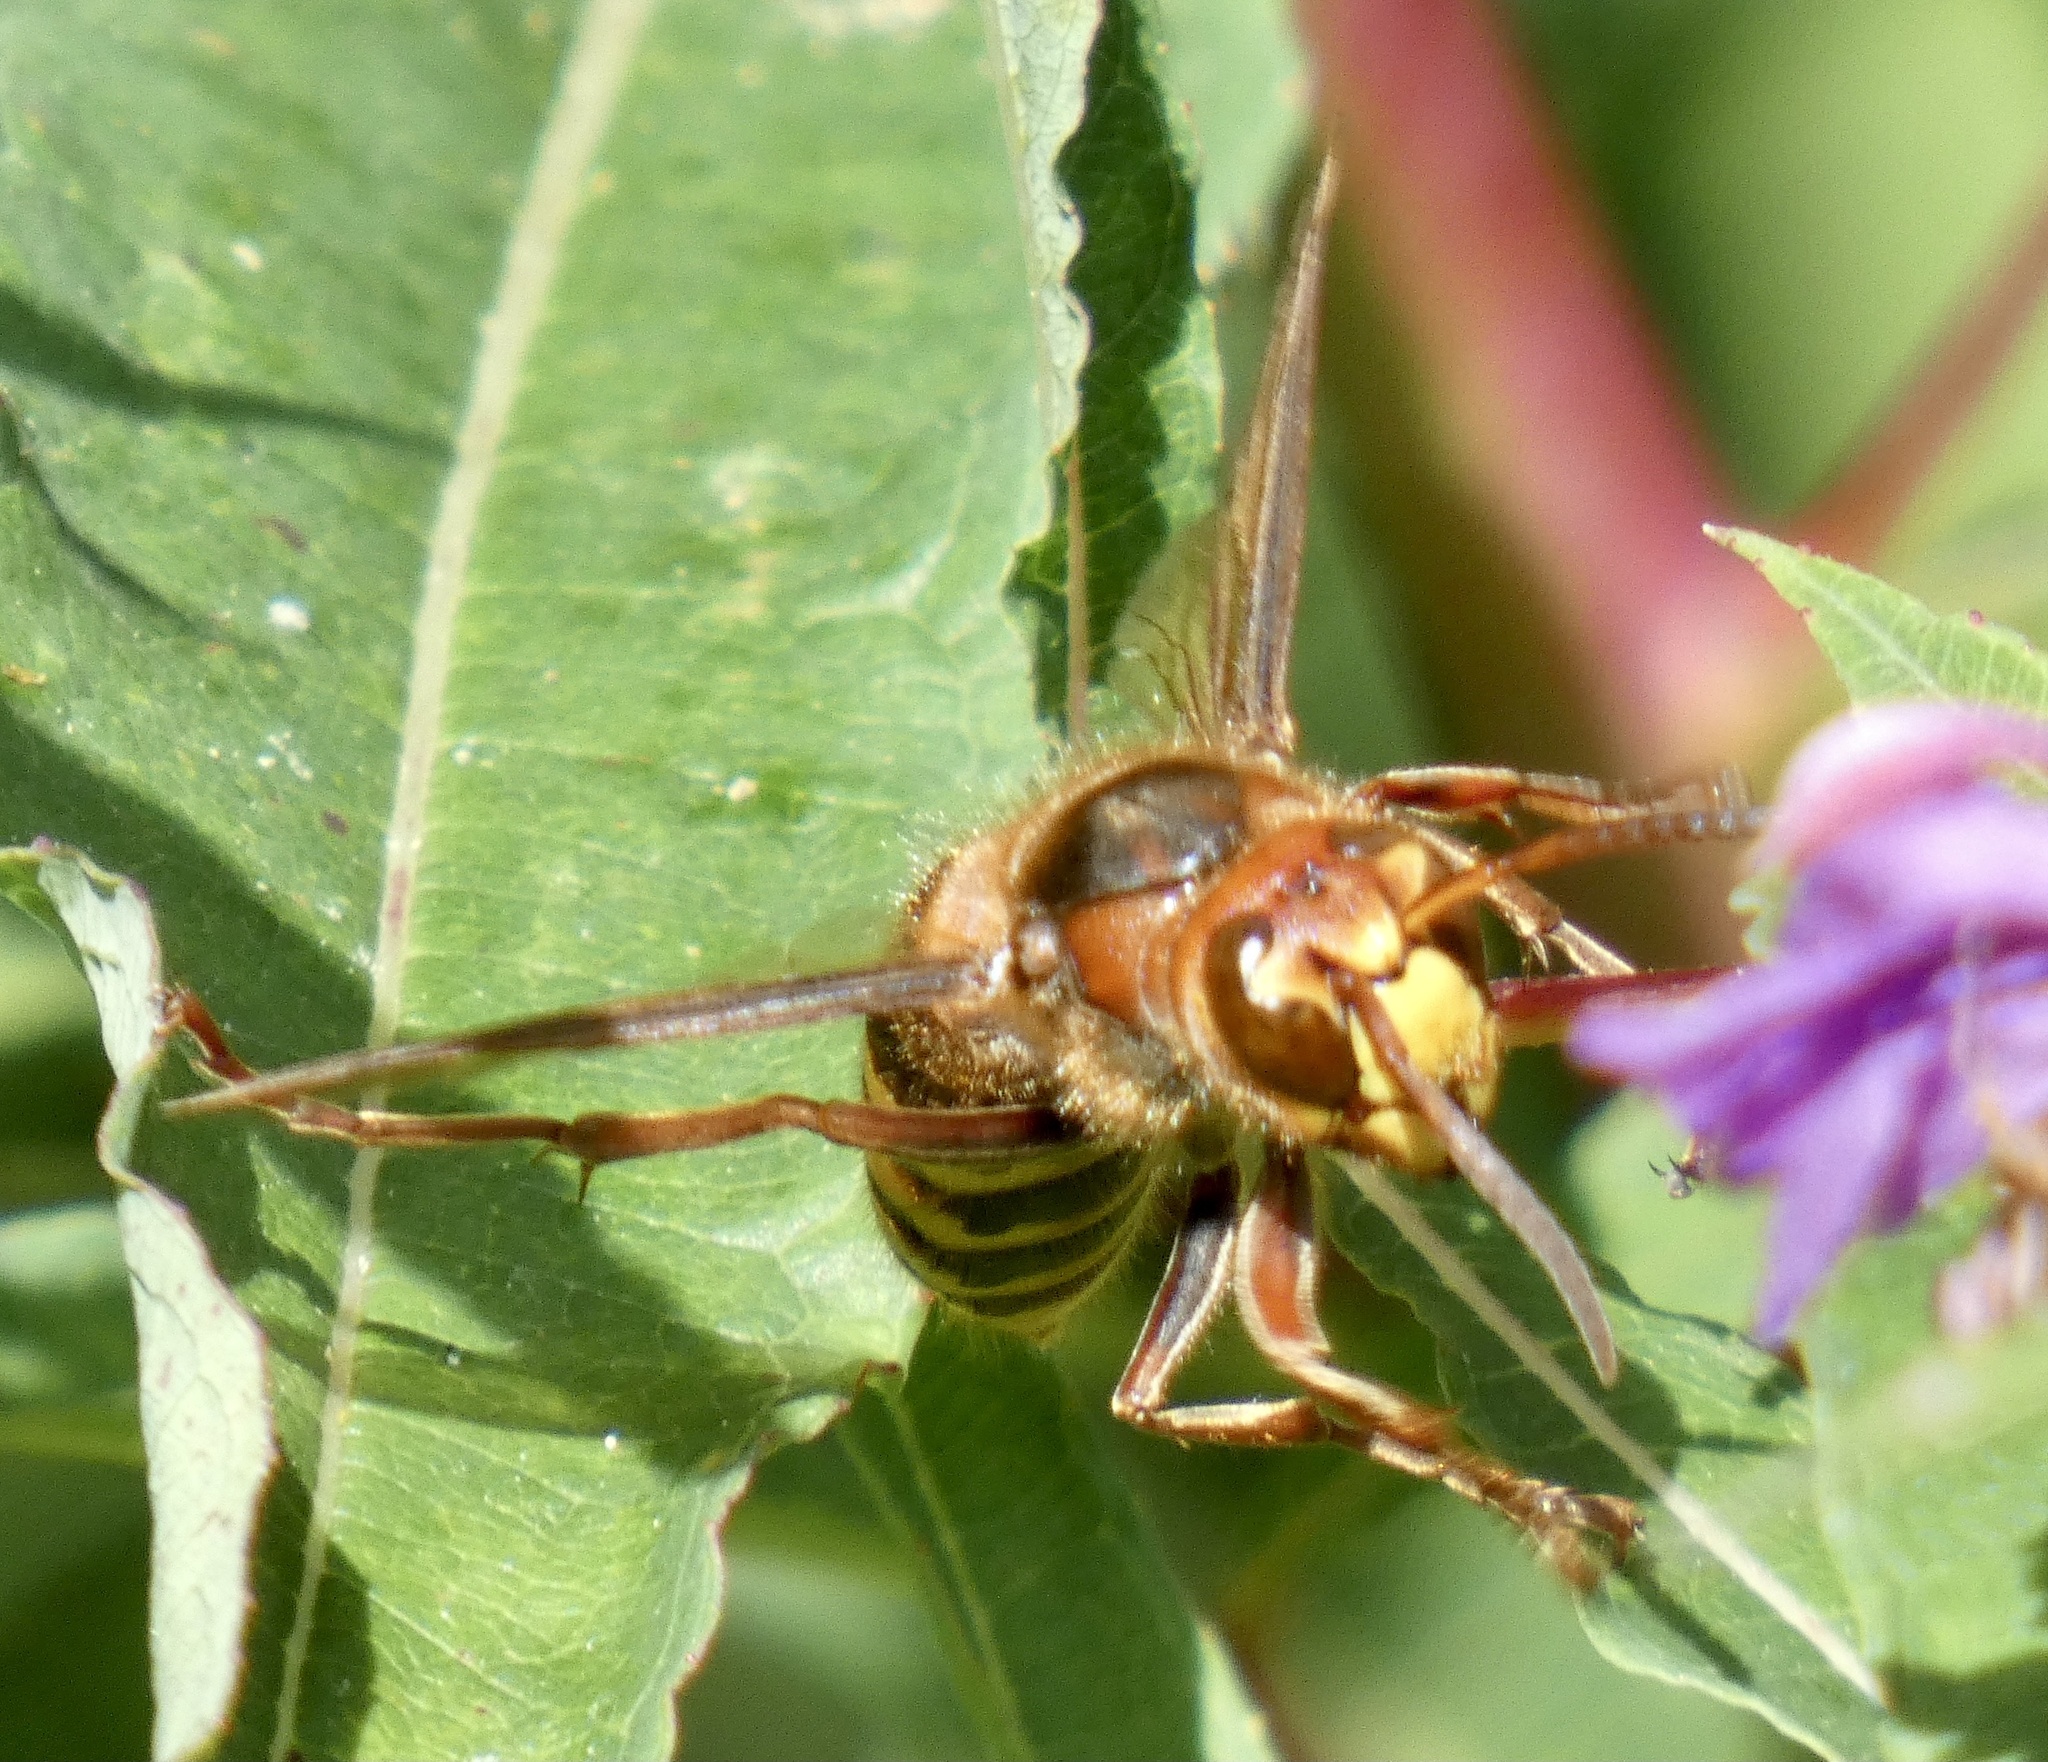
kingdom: Animalia
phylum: Arthropoda
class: Insecta
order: Hymenoptera
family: Vespidae
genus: Vespa
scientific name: Vespa crabro
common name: Hornet
